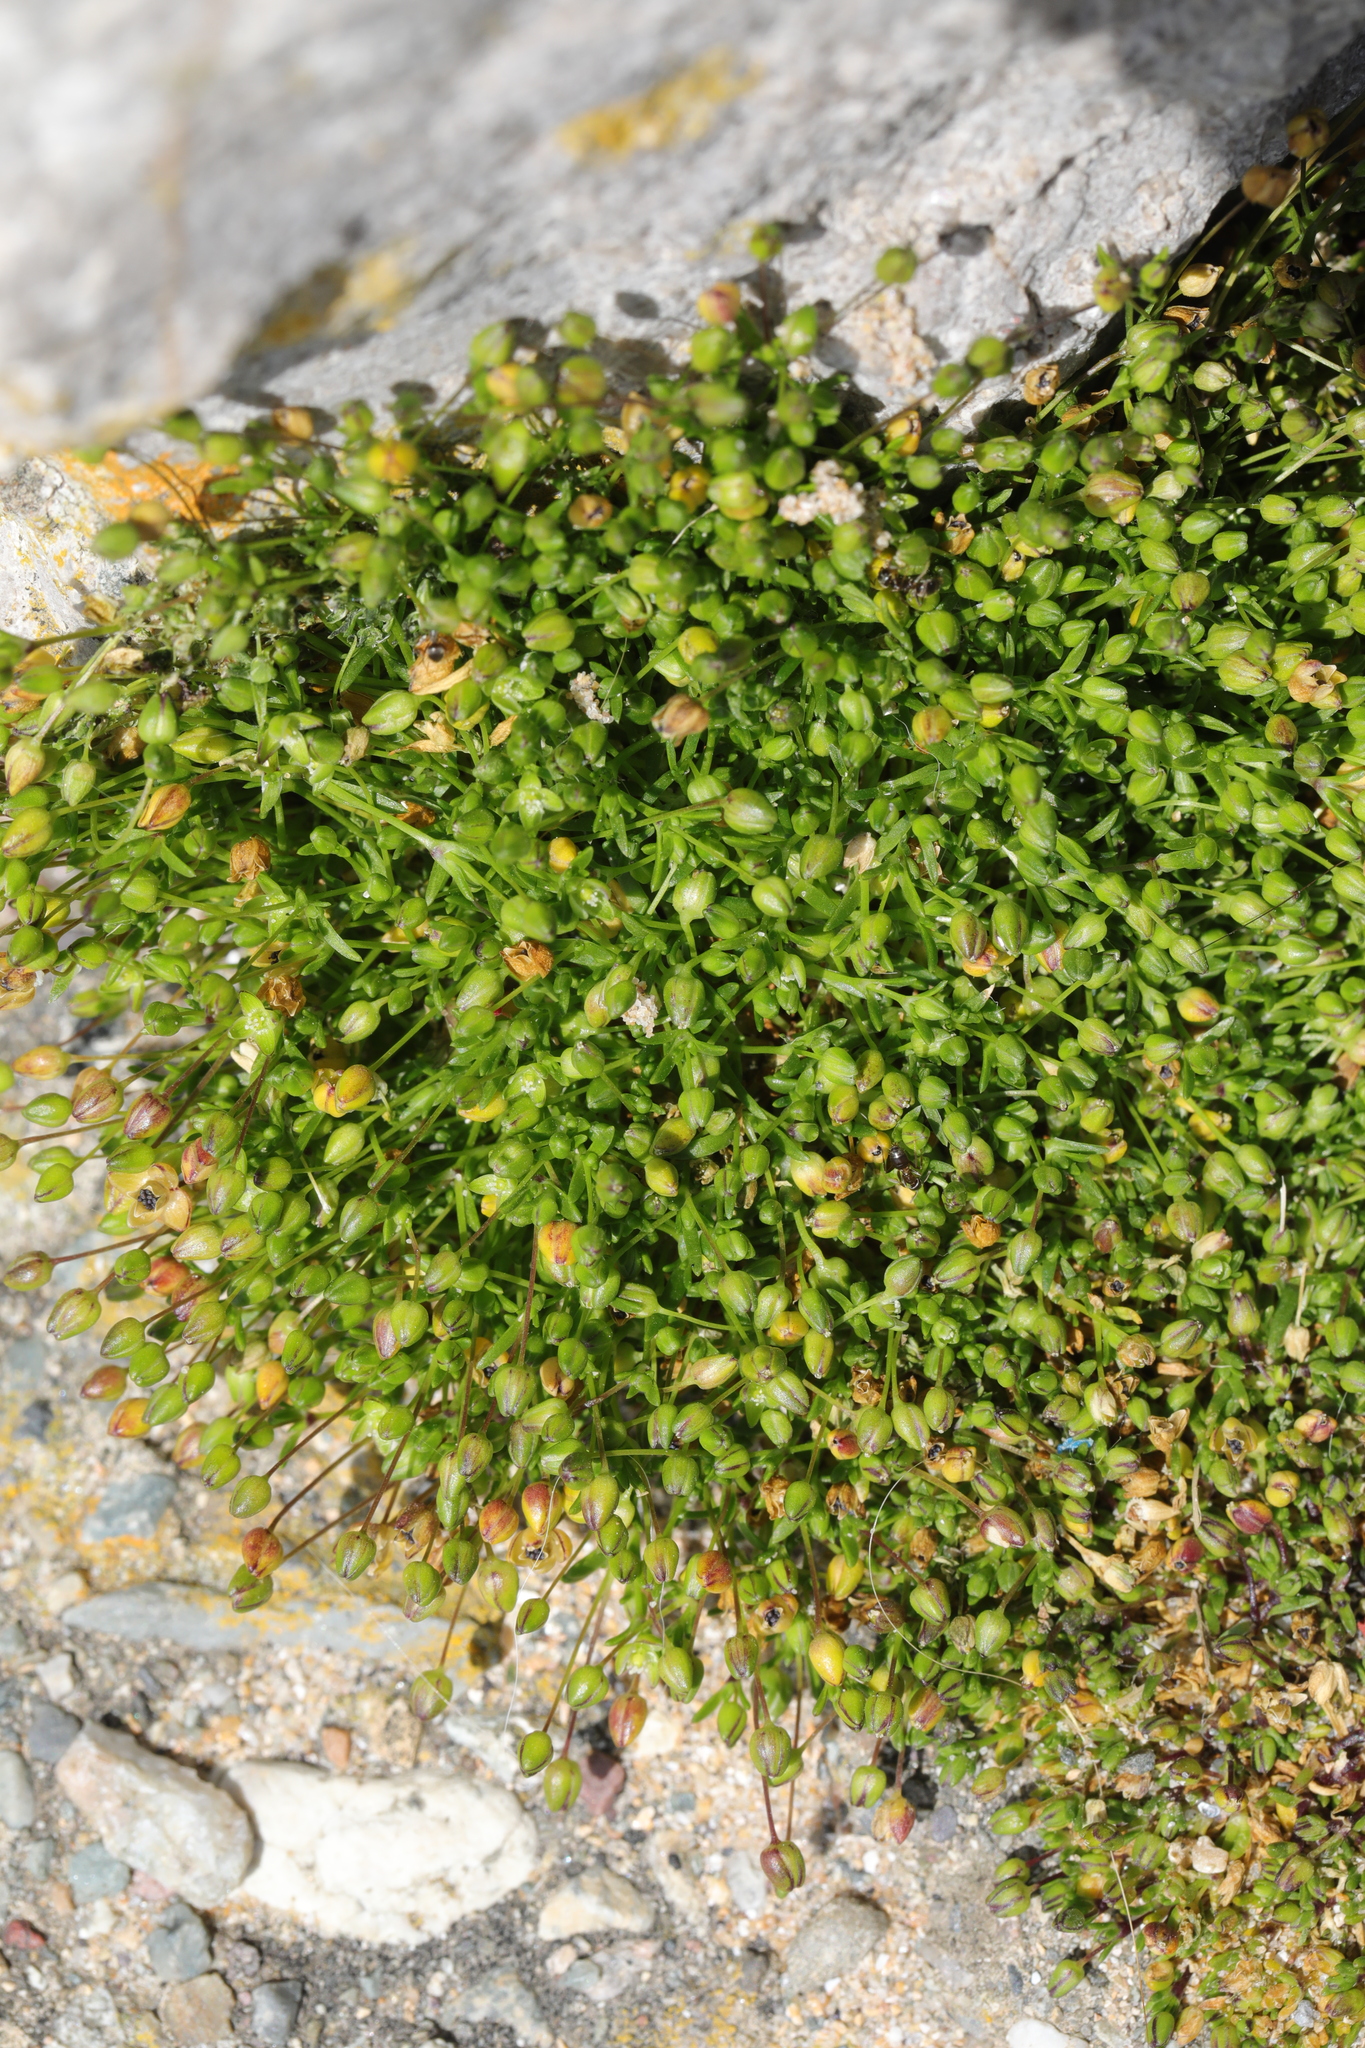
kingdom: Plantae
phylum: Tracheophyta
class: Magnoliopsida
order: Caryophyllales
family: Caryophyllaceae
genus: Sagina
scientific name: Sagina procumbens
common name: Procumbent pearlwort
